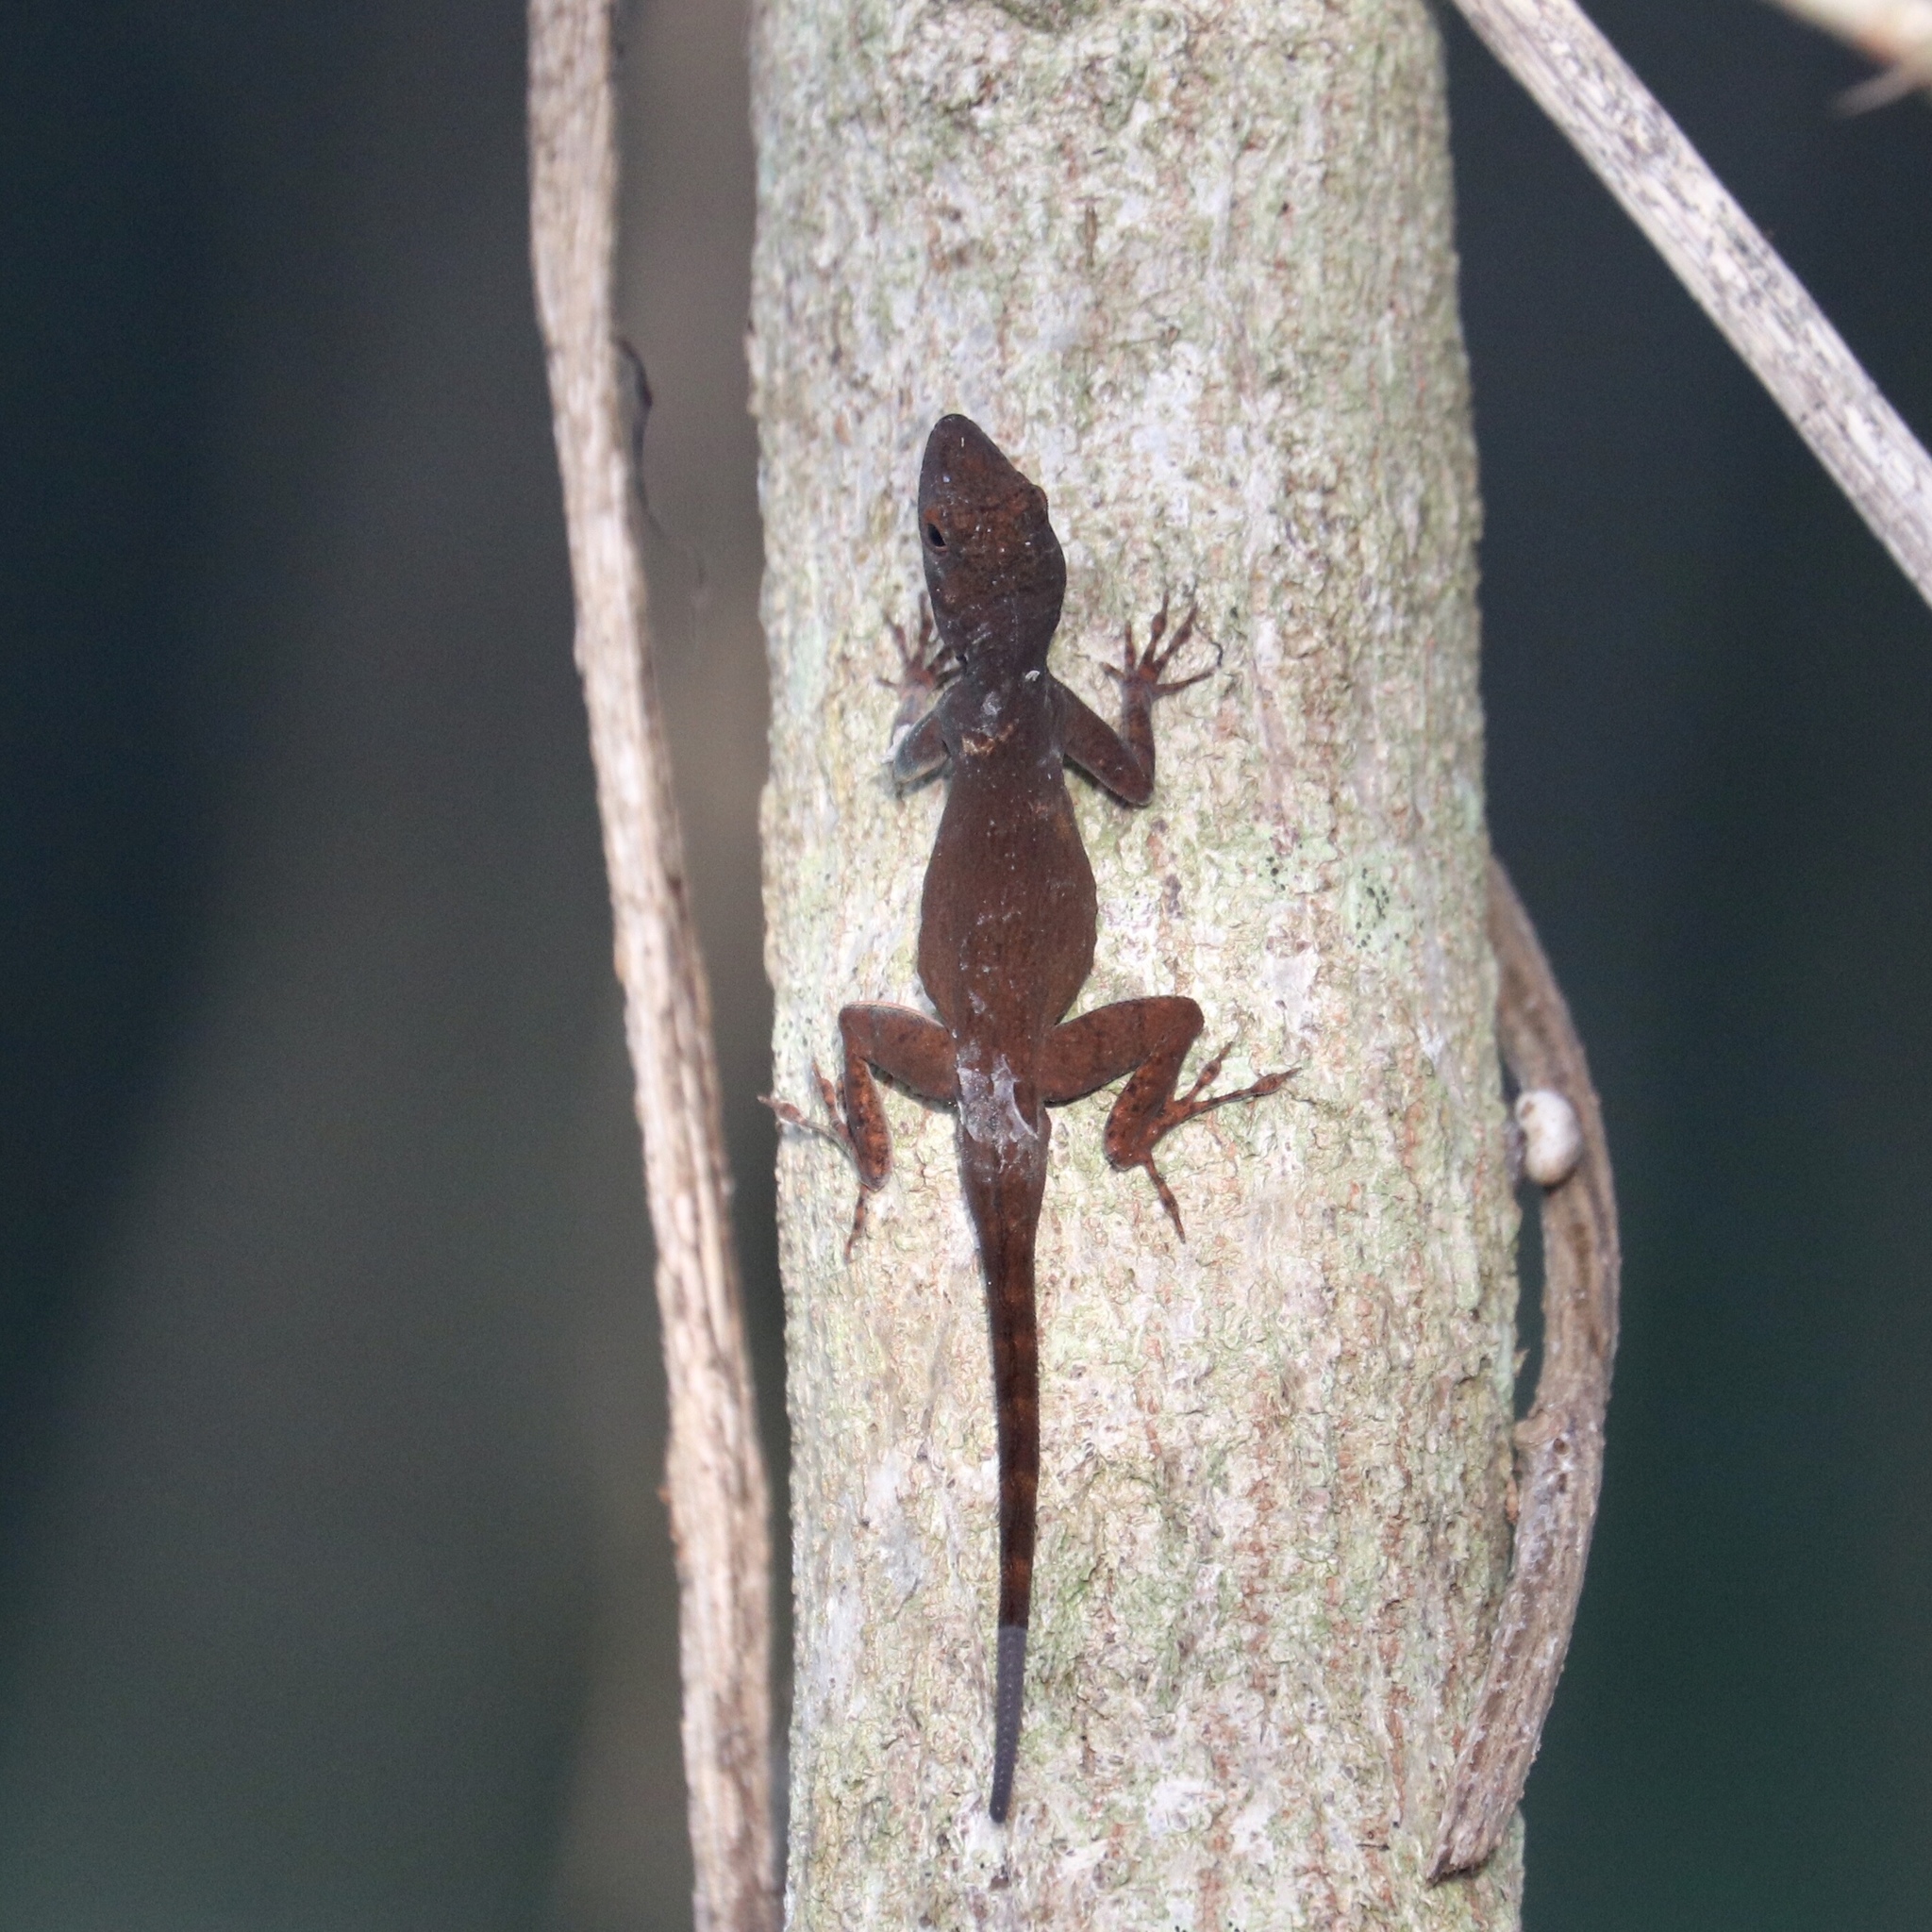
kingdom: Animalia
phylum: Chordata
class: Squamata
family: Dactyloidae
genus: Anolis
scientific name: Anolis properus
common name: Bark anole
